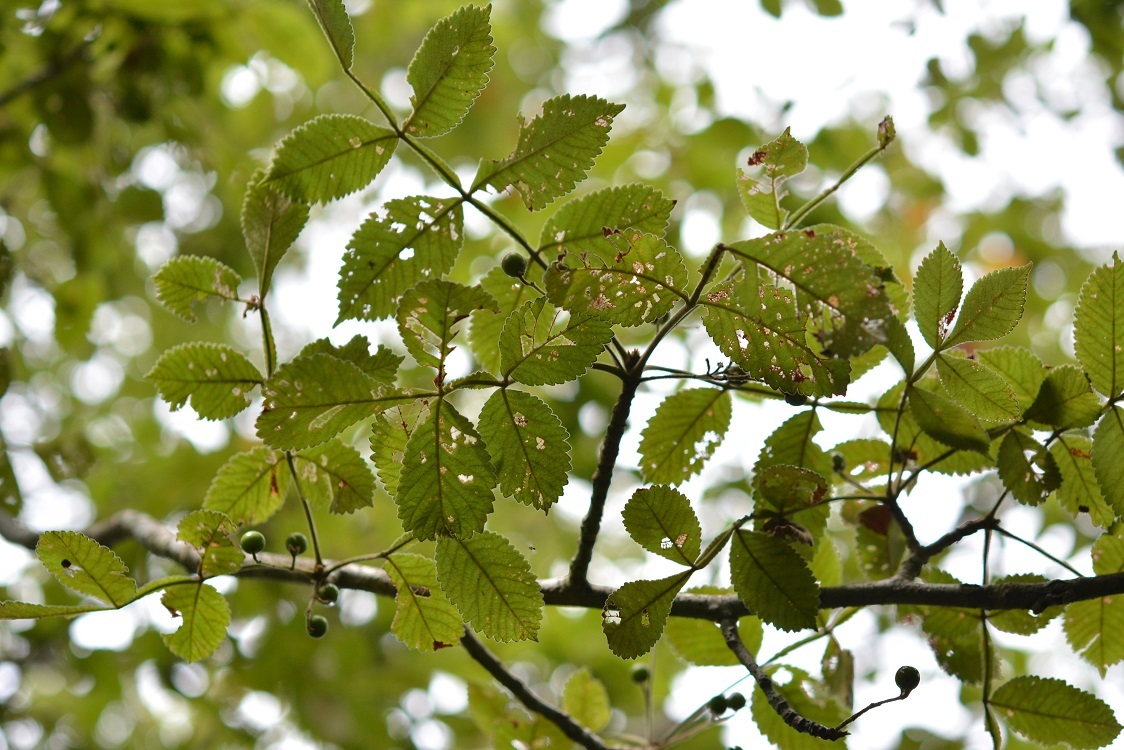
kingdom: Plantae
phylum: Tracheophyta
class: Magnoliopsida
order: Sapindales
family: Burseraceae
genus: Bursera
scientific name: Bursera excelsa
